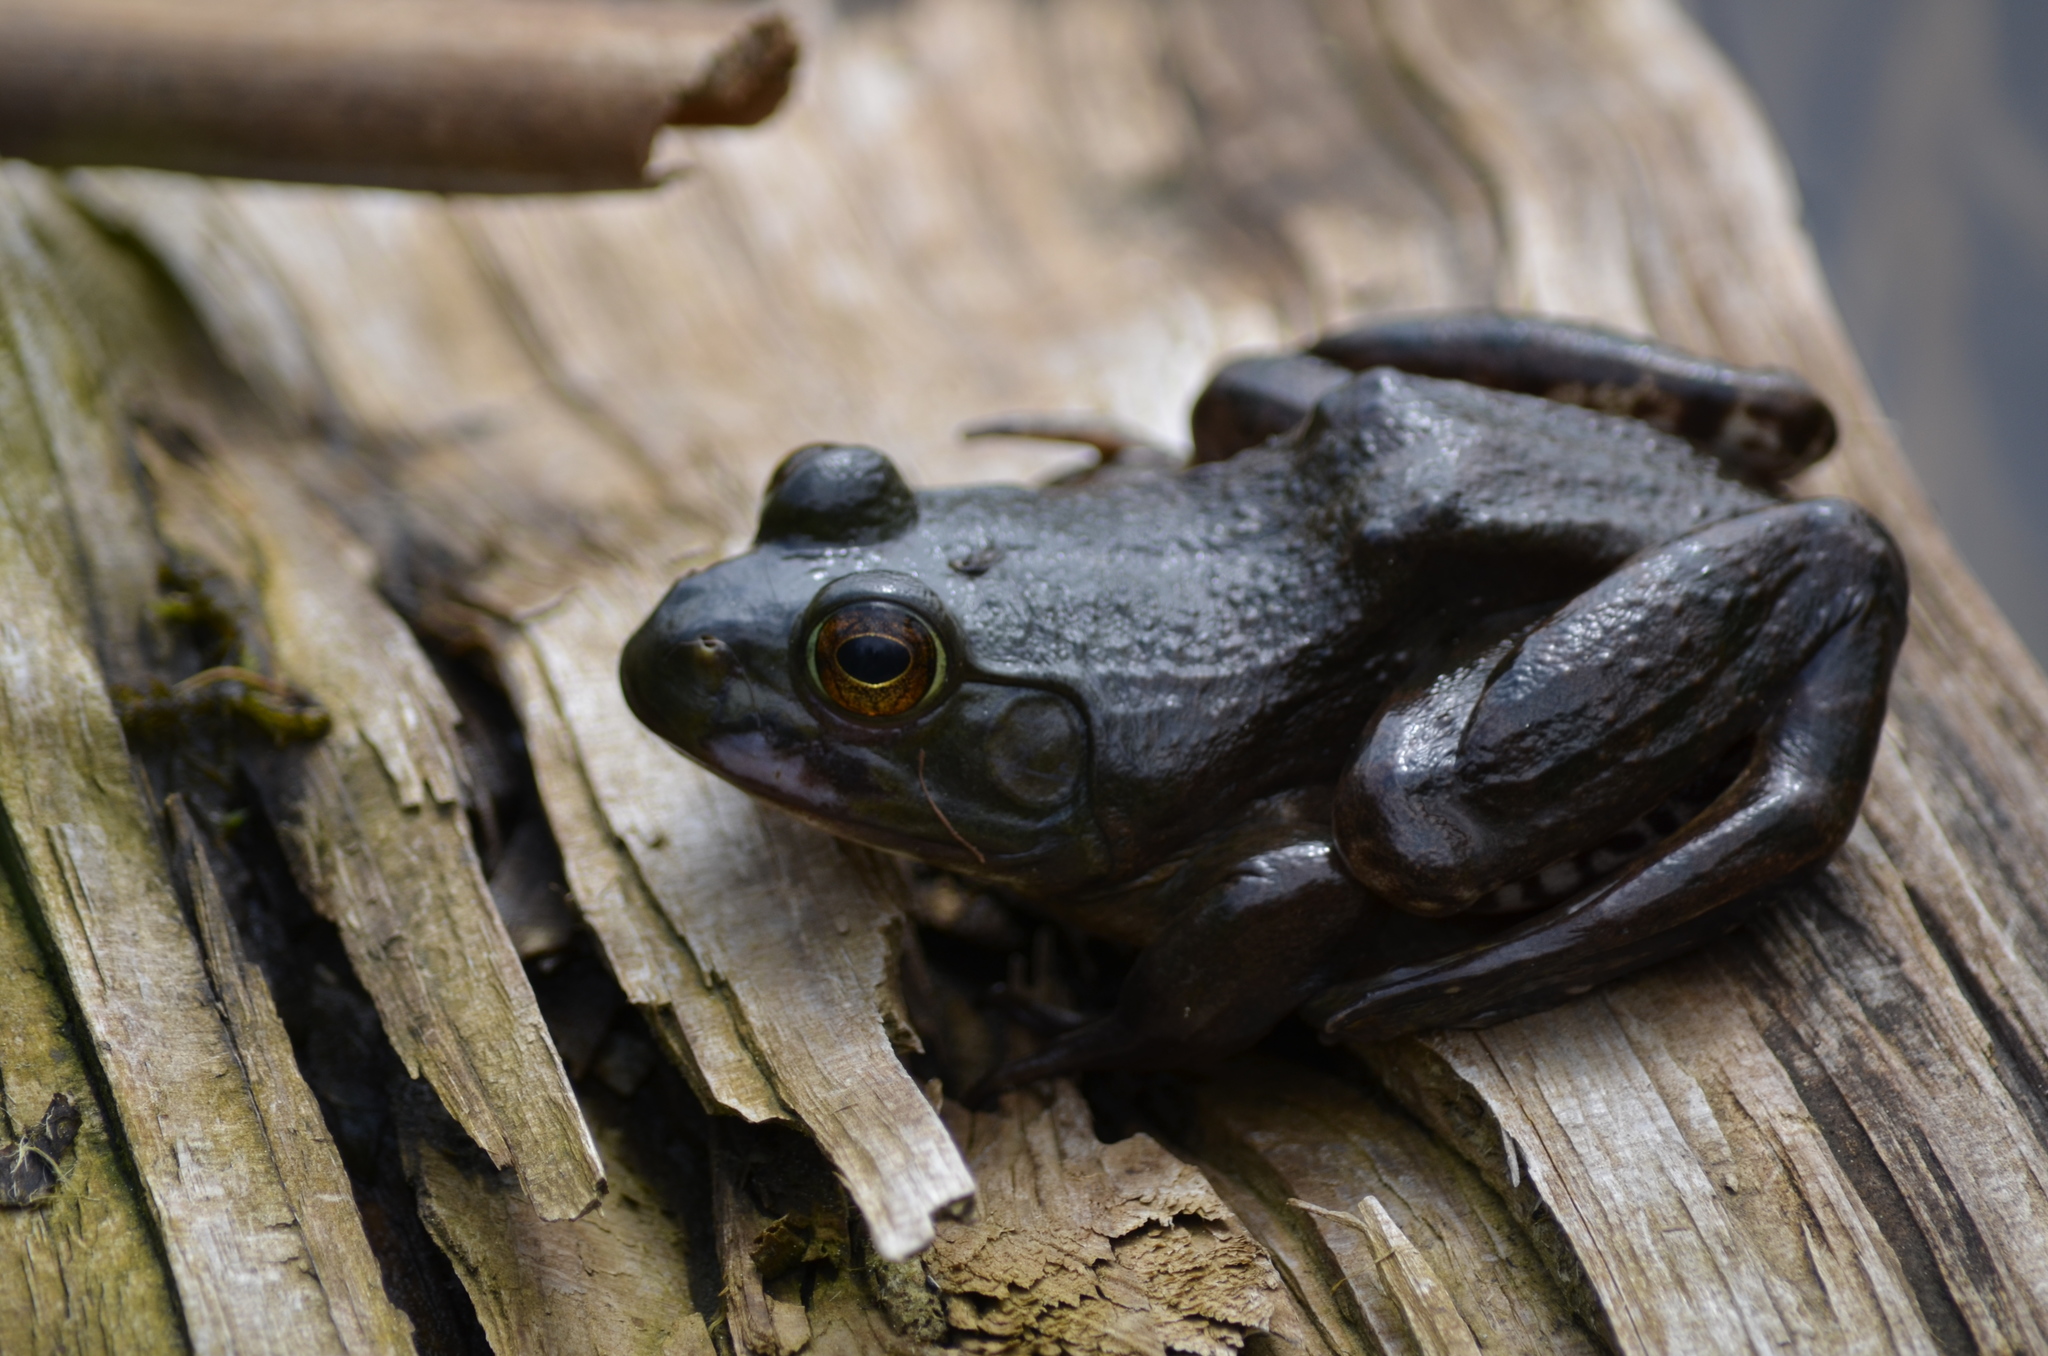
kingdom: Animalia
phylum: Chordata
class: Amphibia
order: Anura
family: Ranidae
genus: Lithobates
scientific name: Lithobates clamitans
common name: Green frog
